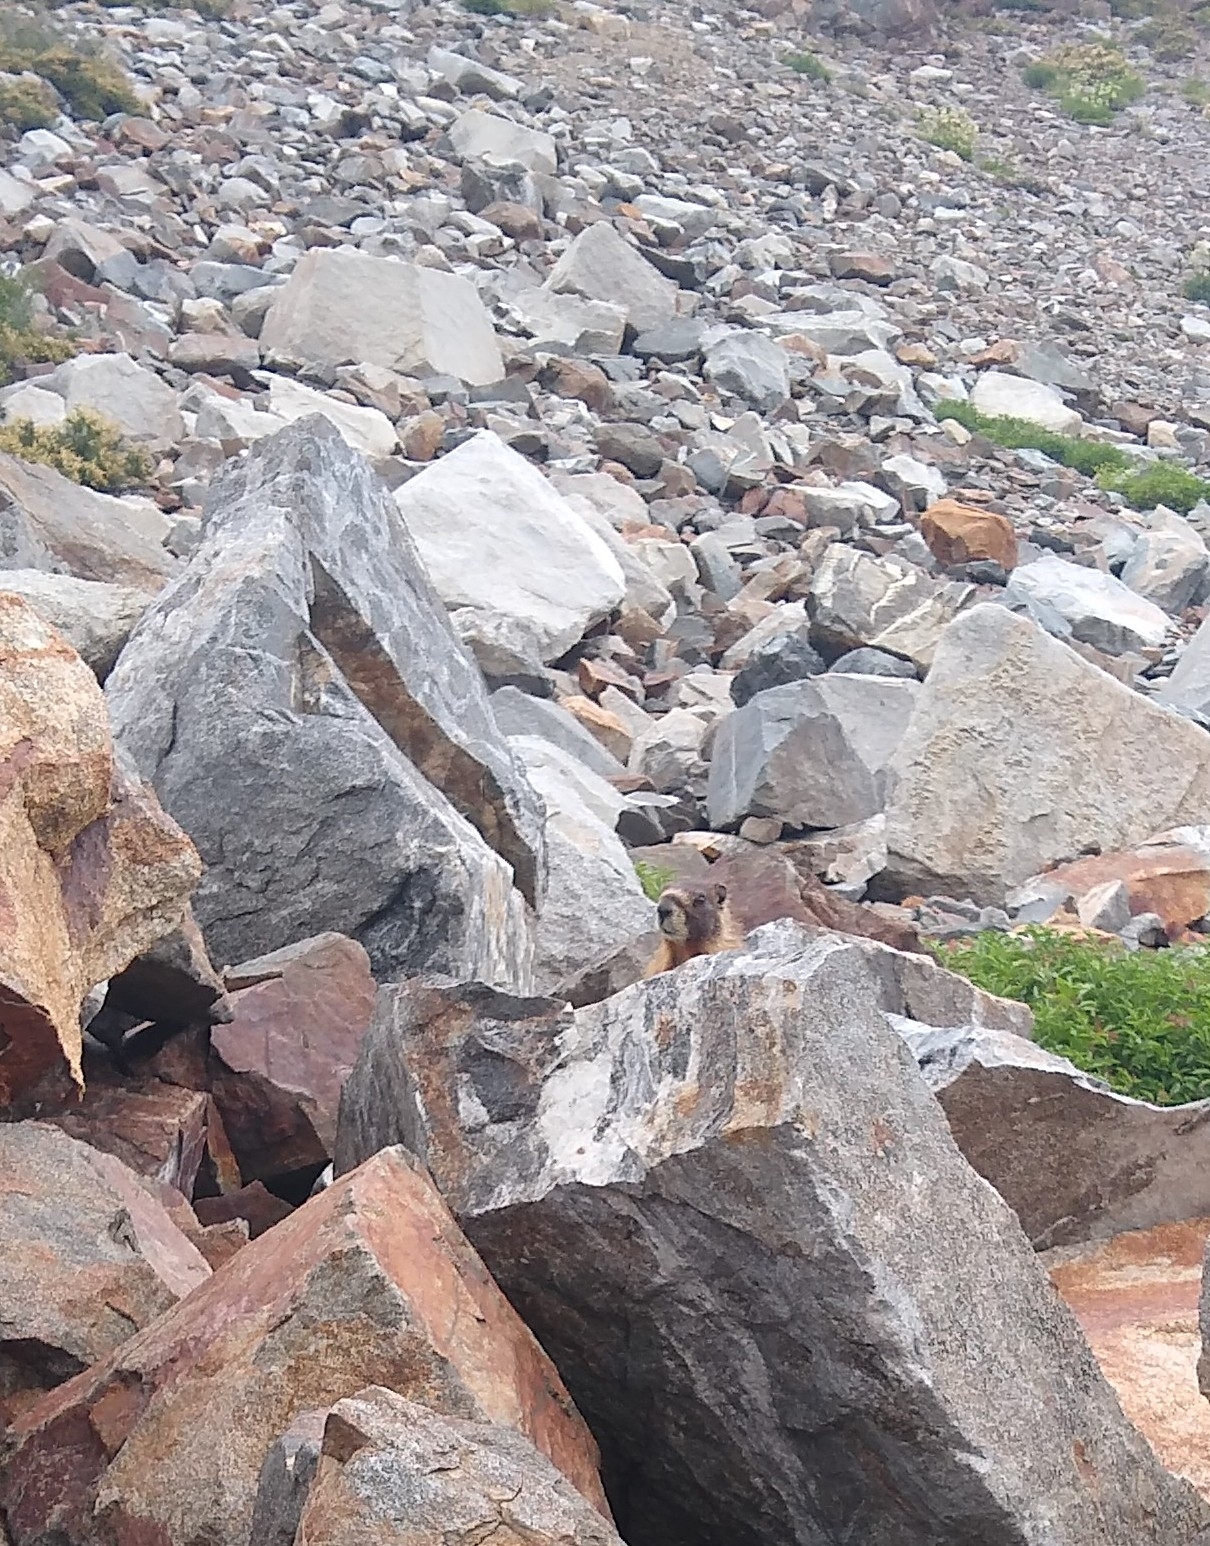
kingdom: Animalia
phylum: Chordata
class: Mammalia
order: Rodentia
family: Sciuridae
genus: Marmota
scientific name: Marmota flaviventris
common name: Yellow-bellied marmot
